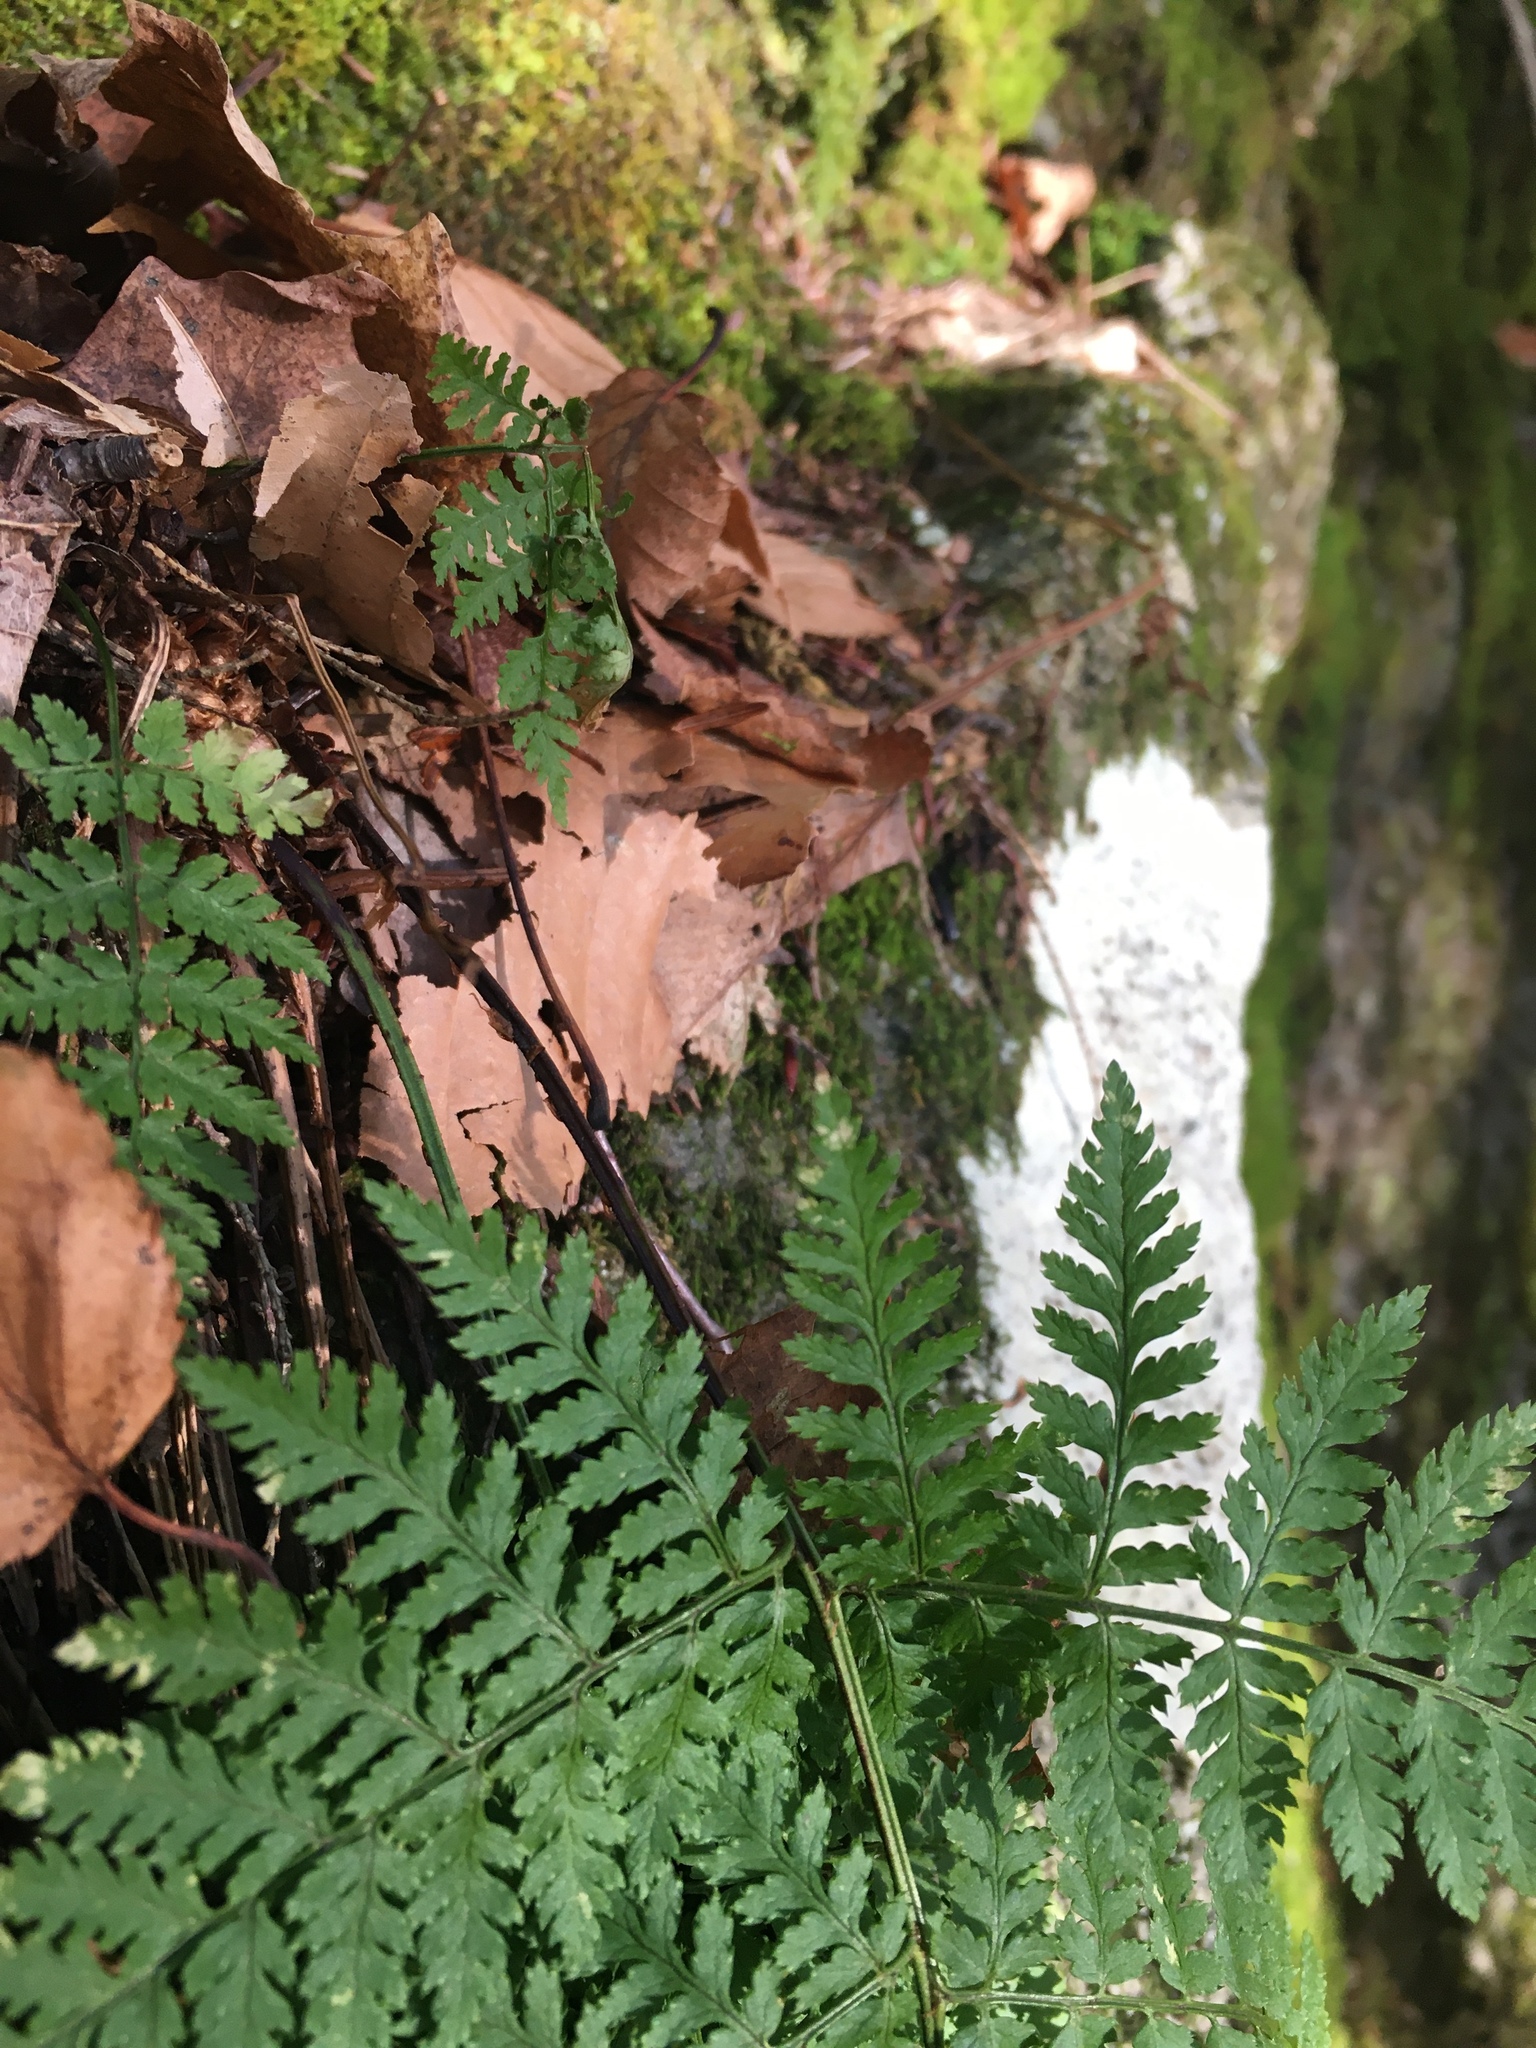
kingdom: Plantae
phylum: Tracheophyta
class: Polypodiopsida
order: Polypodiales
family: Dryopteridaceae
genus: Dryopteris
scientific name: Dryopteris intermedia
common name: Evergreen wood fern
